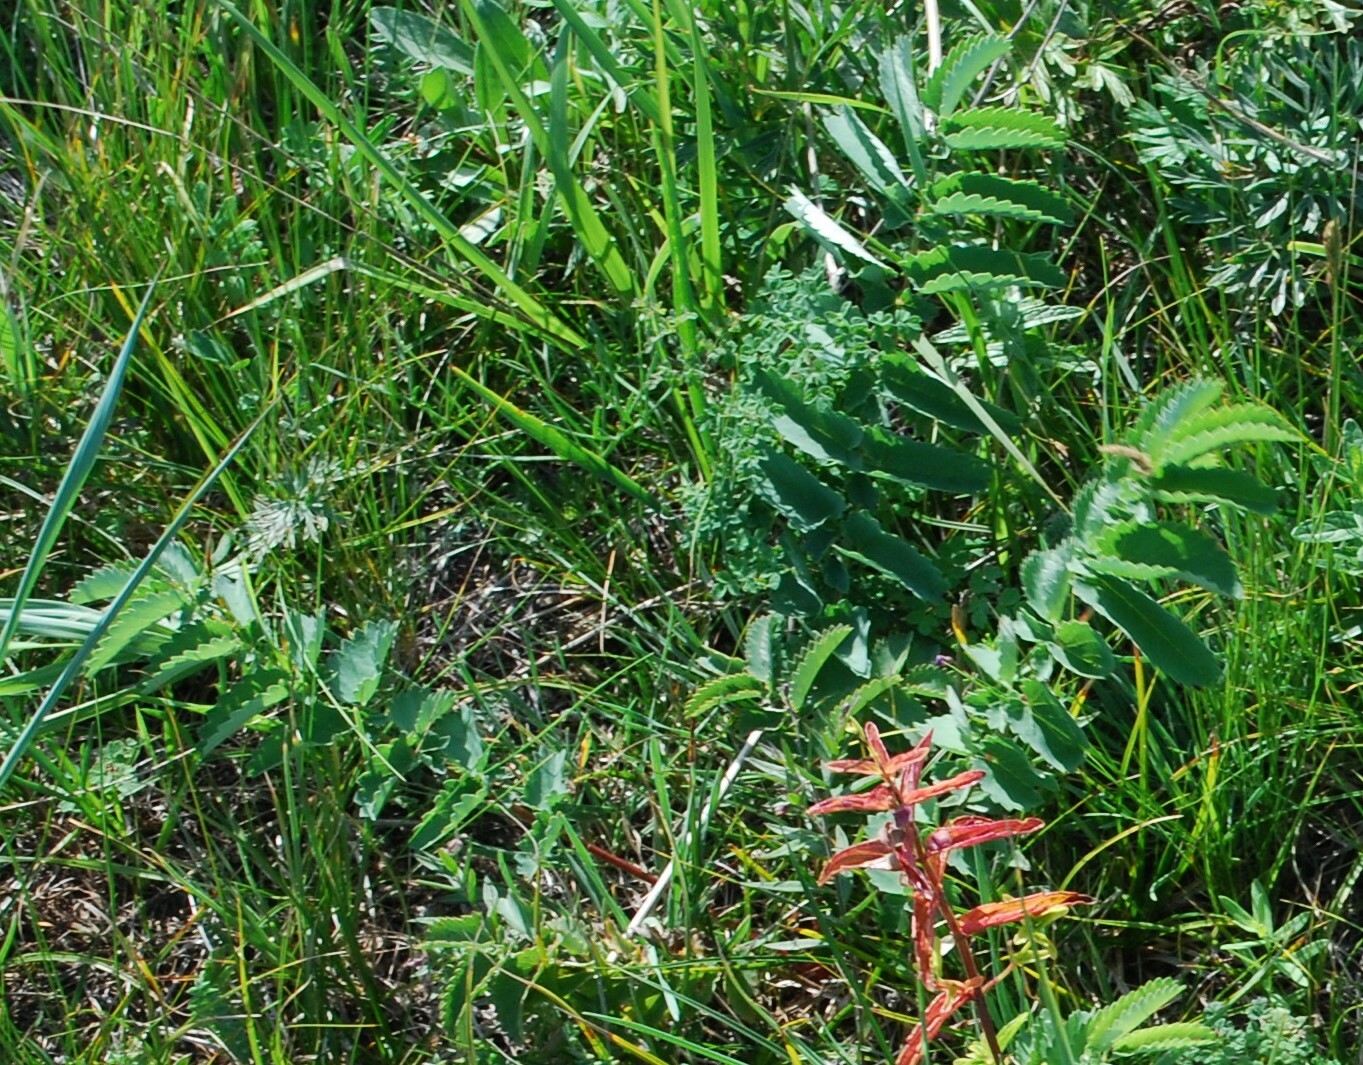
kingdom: Plantae
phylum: Tracheophyta
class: Magnoliopsida
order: Rosales
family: Rosaceae
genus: Sanguisorba
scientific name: Sanguisorba officinalis
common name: Great burnet
